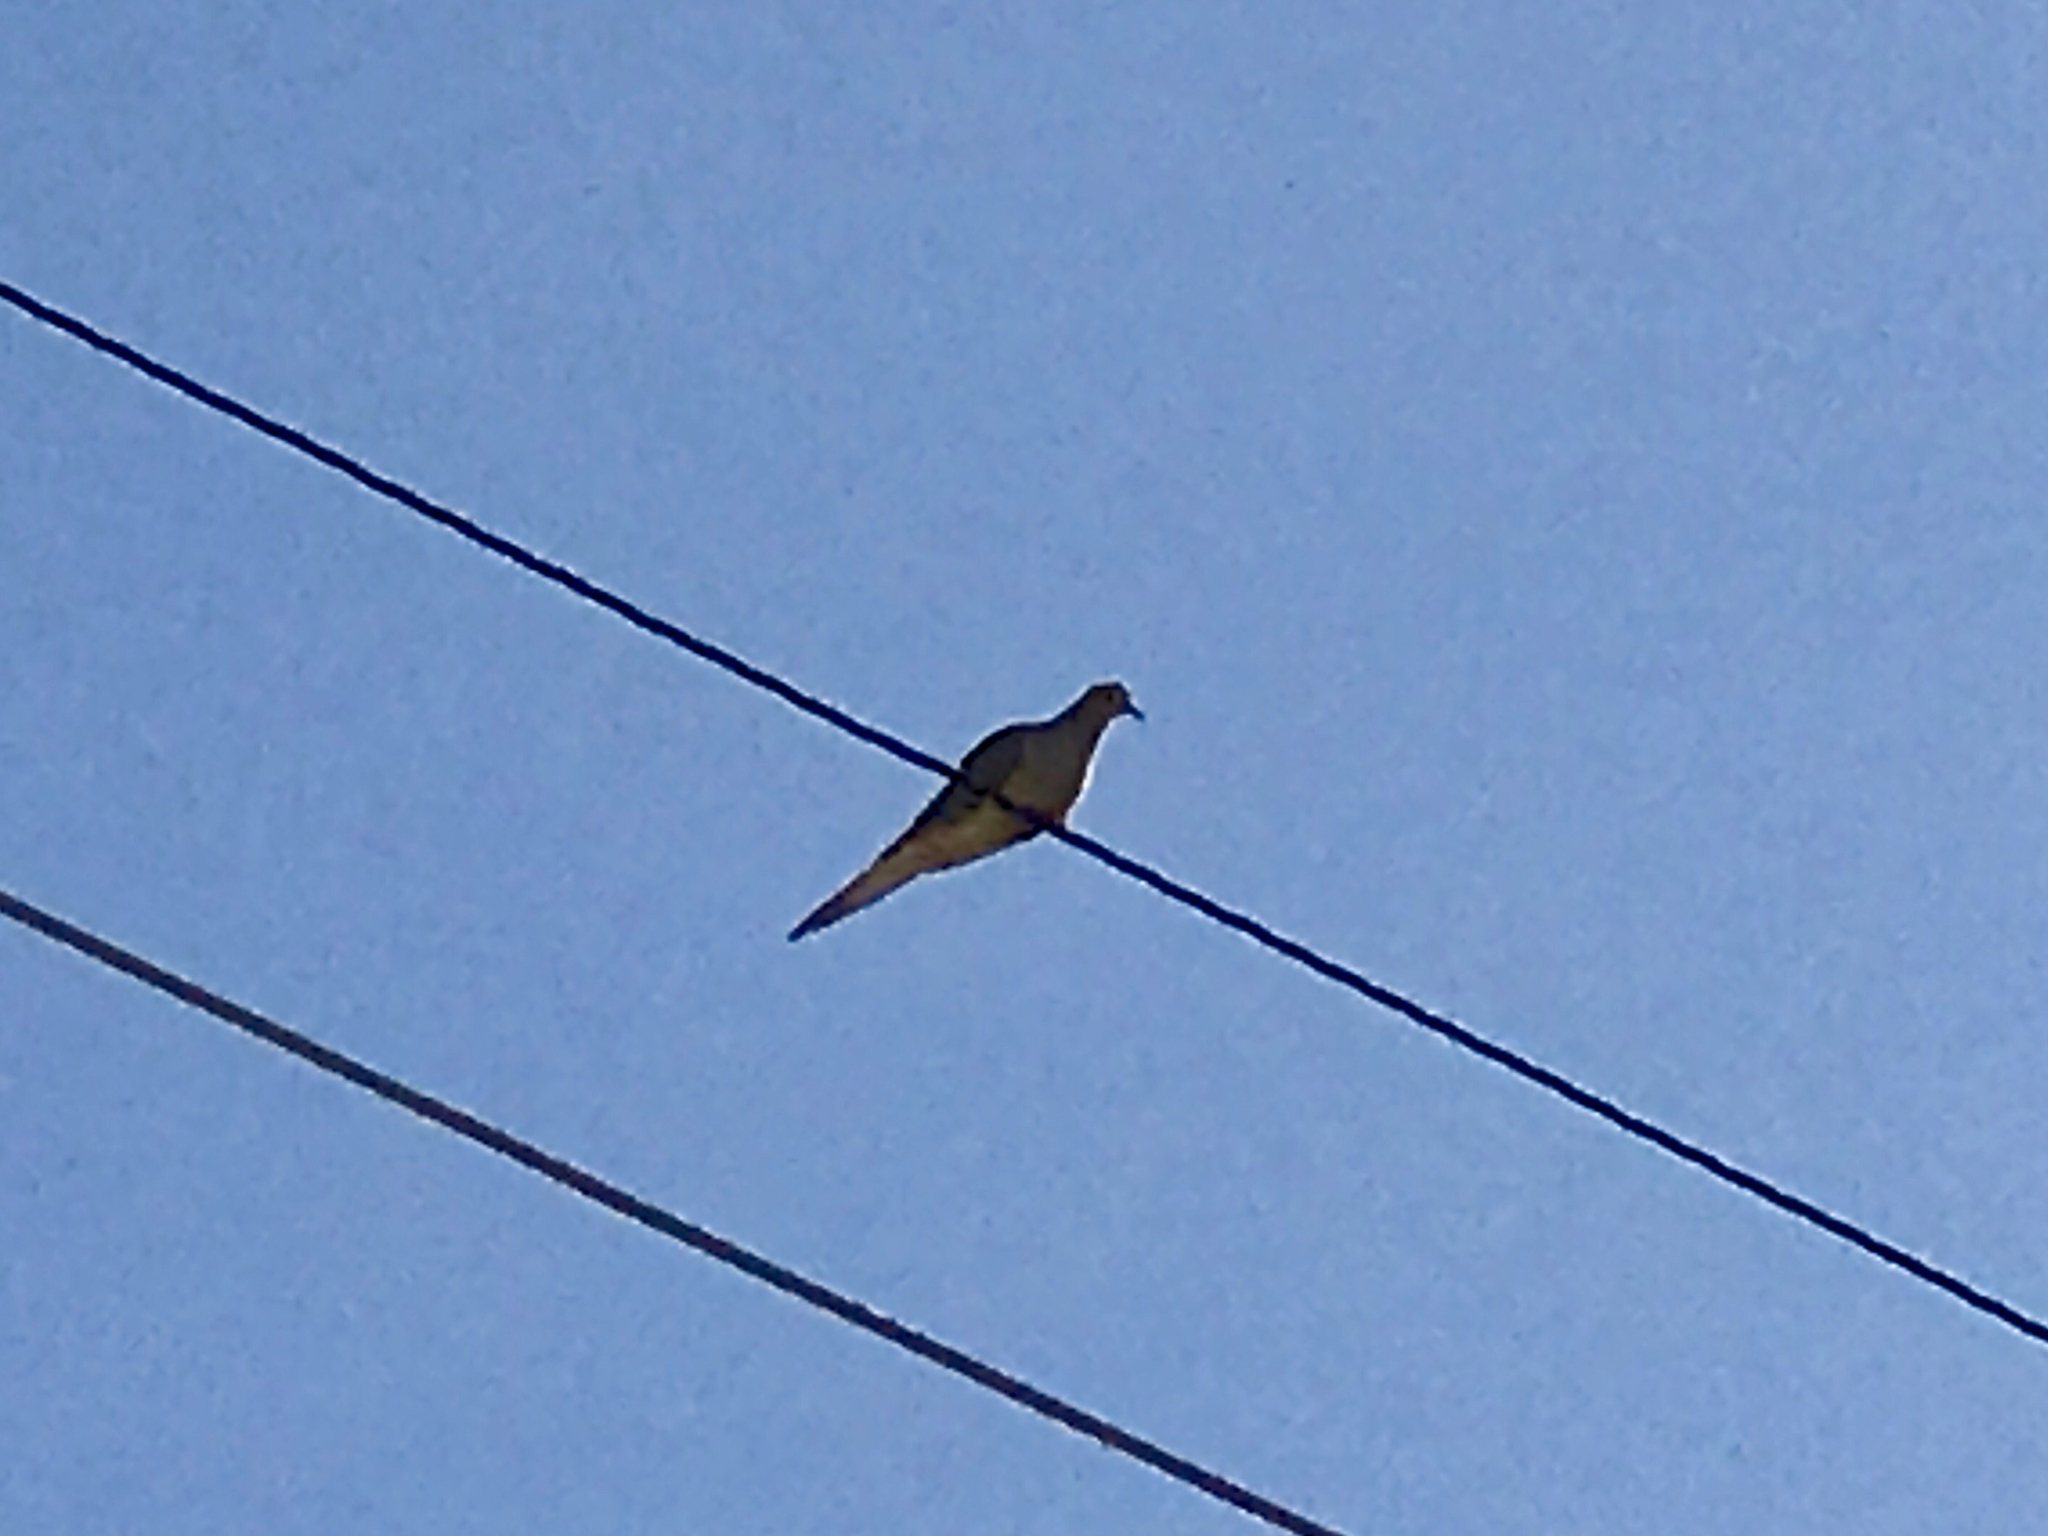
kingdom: Animalia
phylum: Chordata
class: Aves
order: Columbiformes
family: Columbidae
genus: Zenaida
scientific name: Zenaida macroura
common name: Mourning dove
